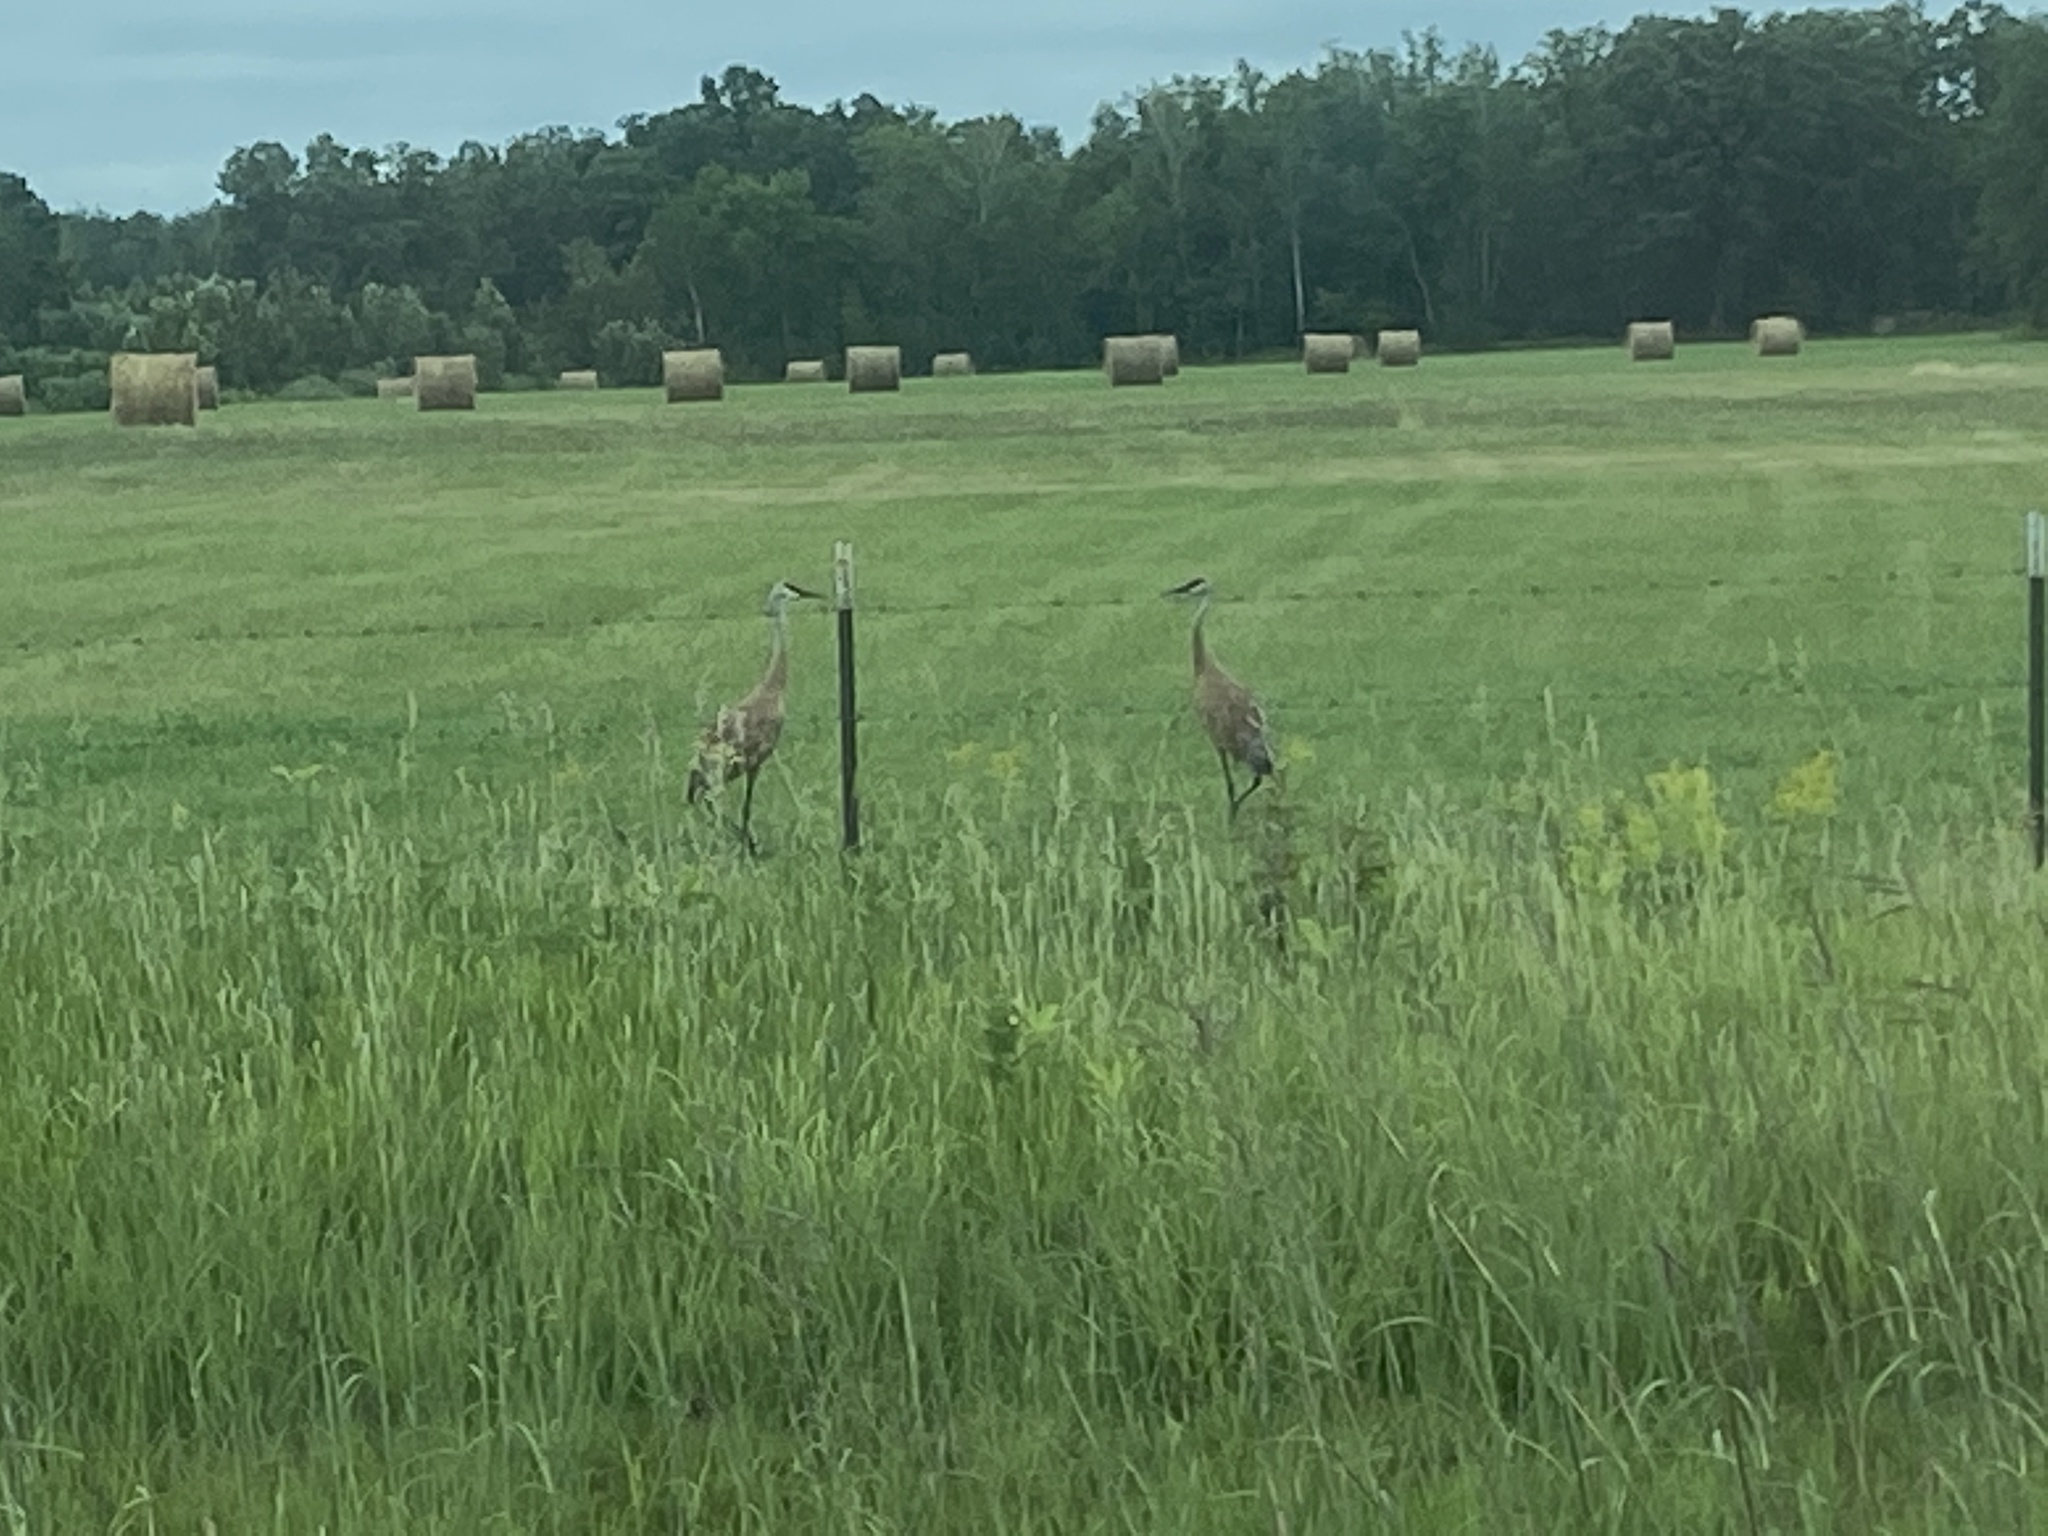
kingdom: Animalia
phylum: Chordata
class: Aves
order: Gruiformes
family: Gruidae
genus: Grus
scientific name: Grus canadensis
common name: Sandhill crane
